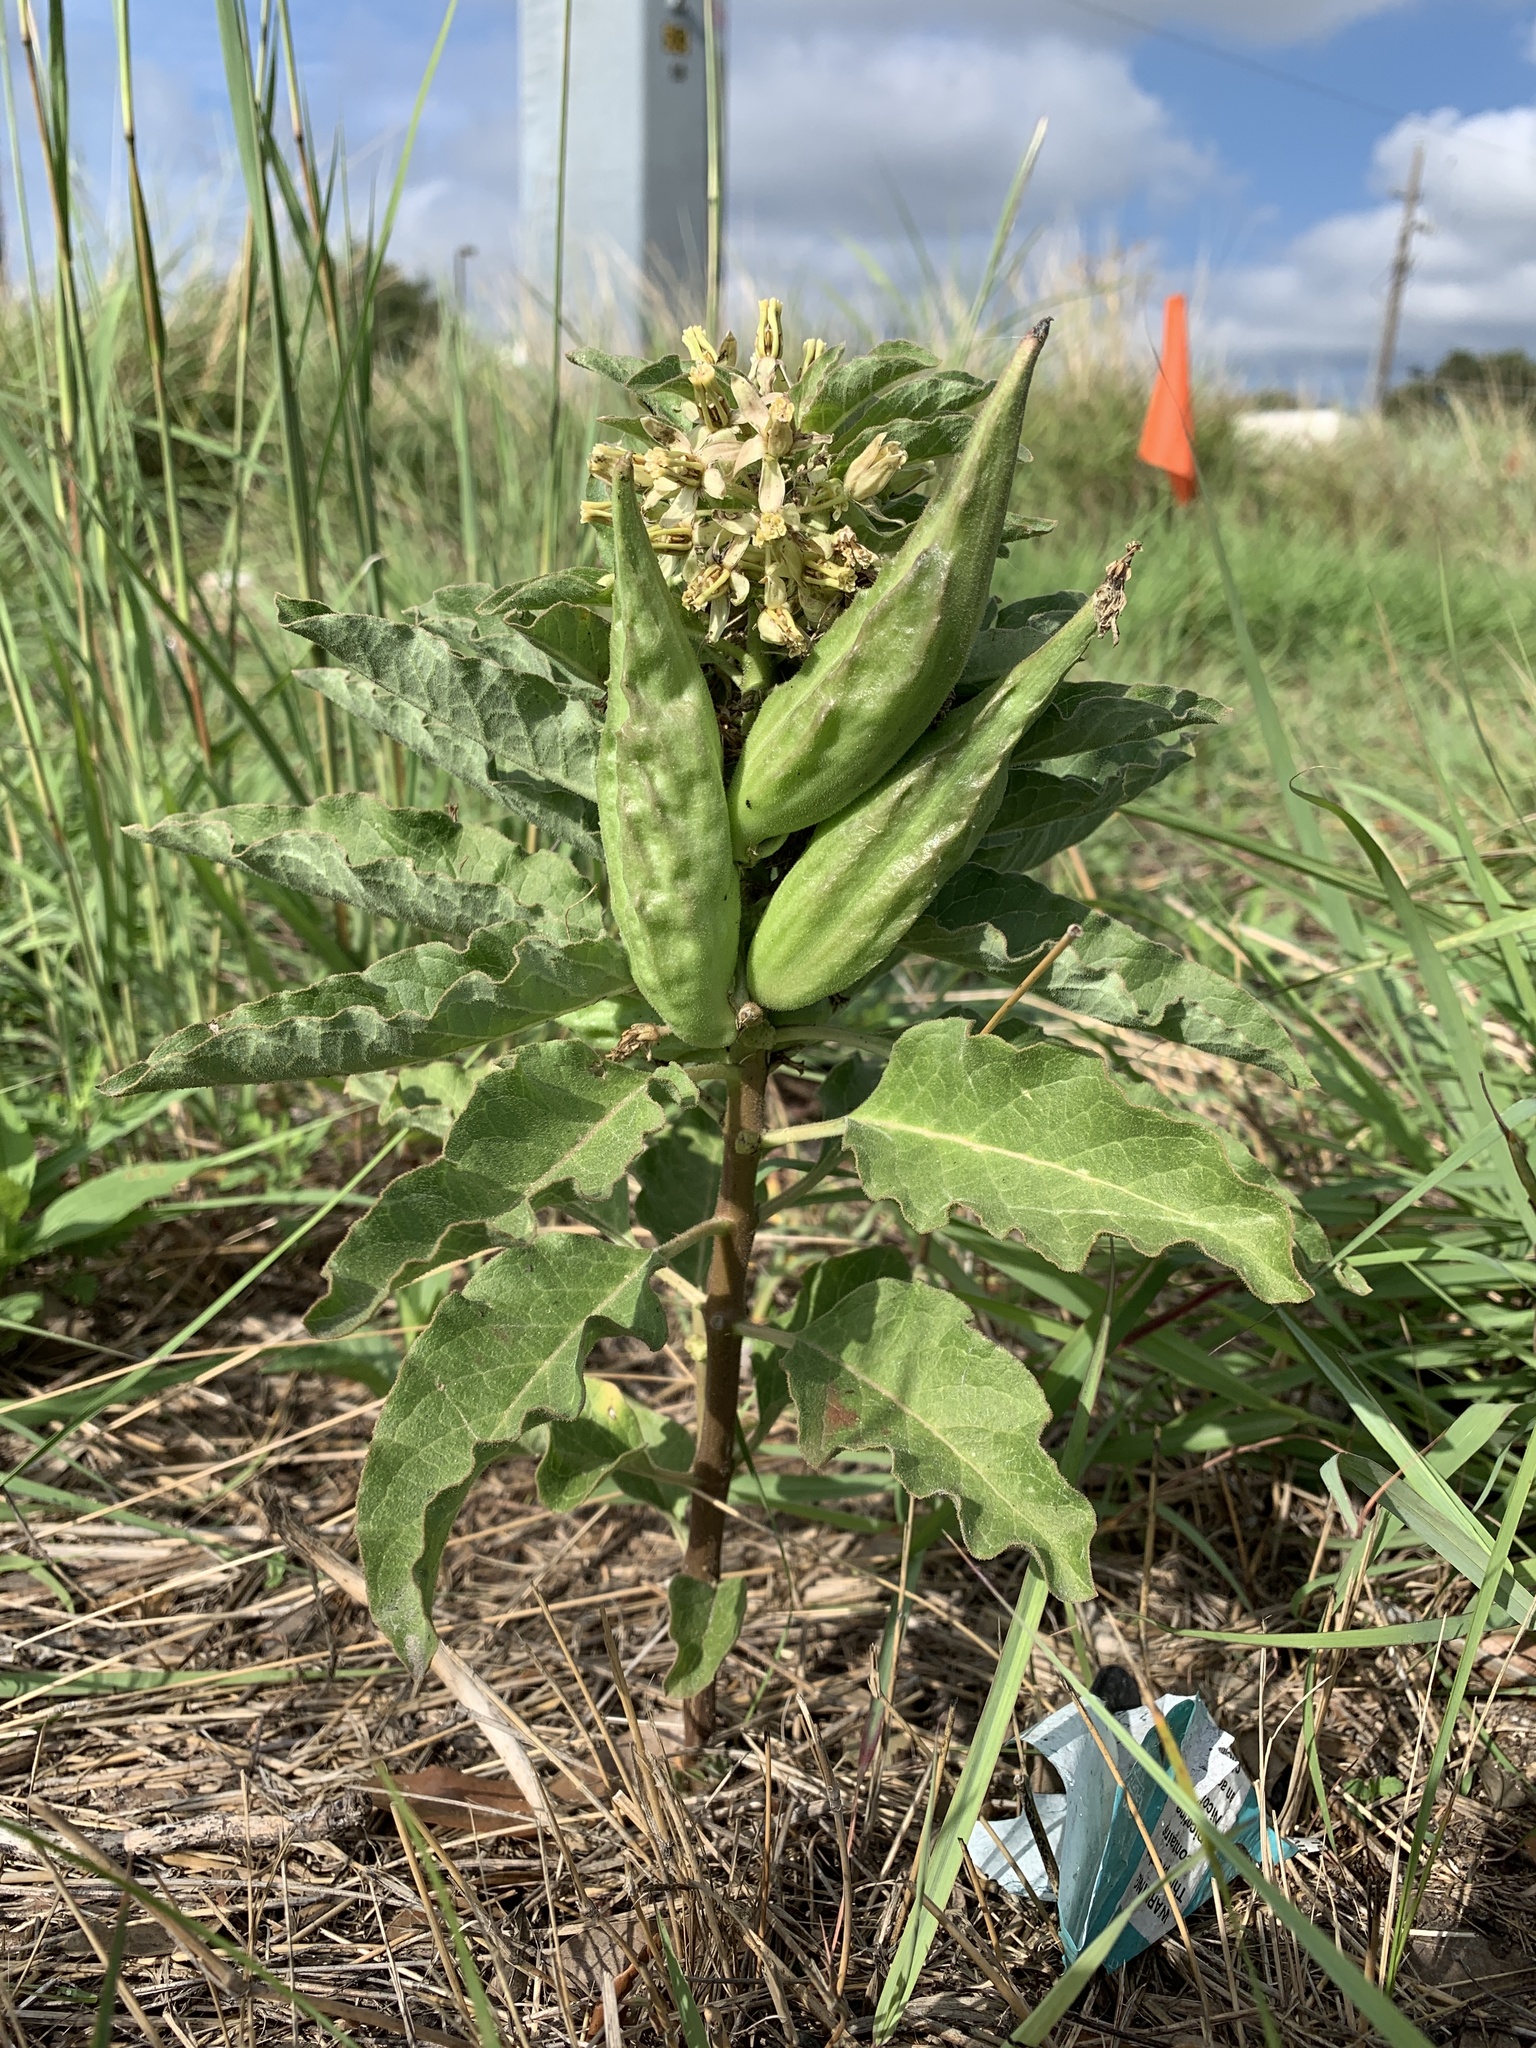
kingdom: Plantae
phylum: Tracheophyta
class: Magnoliopsida
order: Gentianales
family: Apocynaceae
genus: Asclepias
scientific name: Asclepias oenotheroides
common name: Zizotes milkweed
